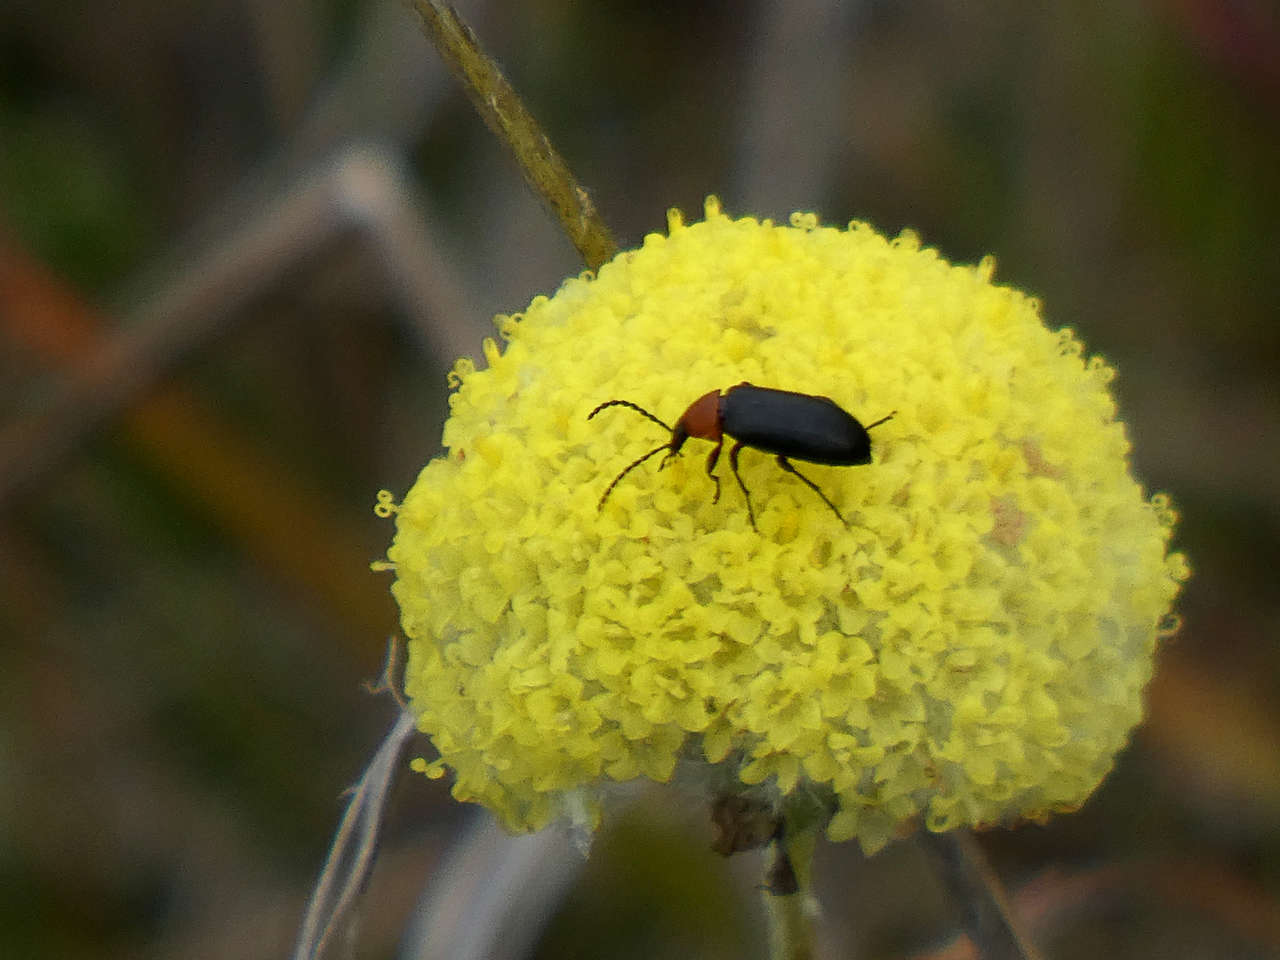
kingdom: Plantae
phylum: Tracheophyta
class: Magnoliopsida
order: Asterales
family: Asteraceae
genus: Craspedia
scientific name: Craspedia variabilis
